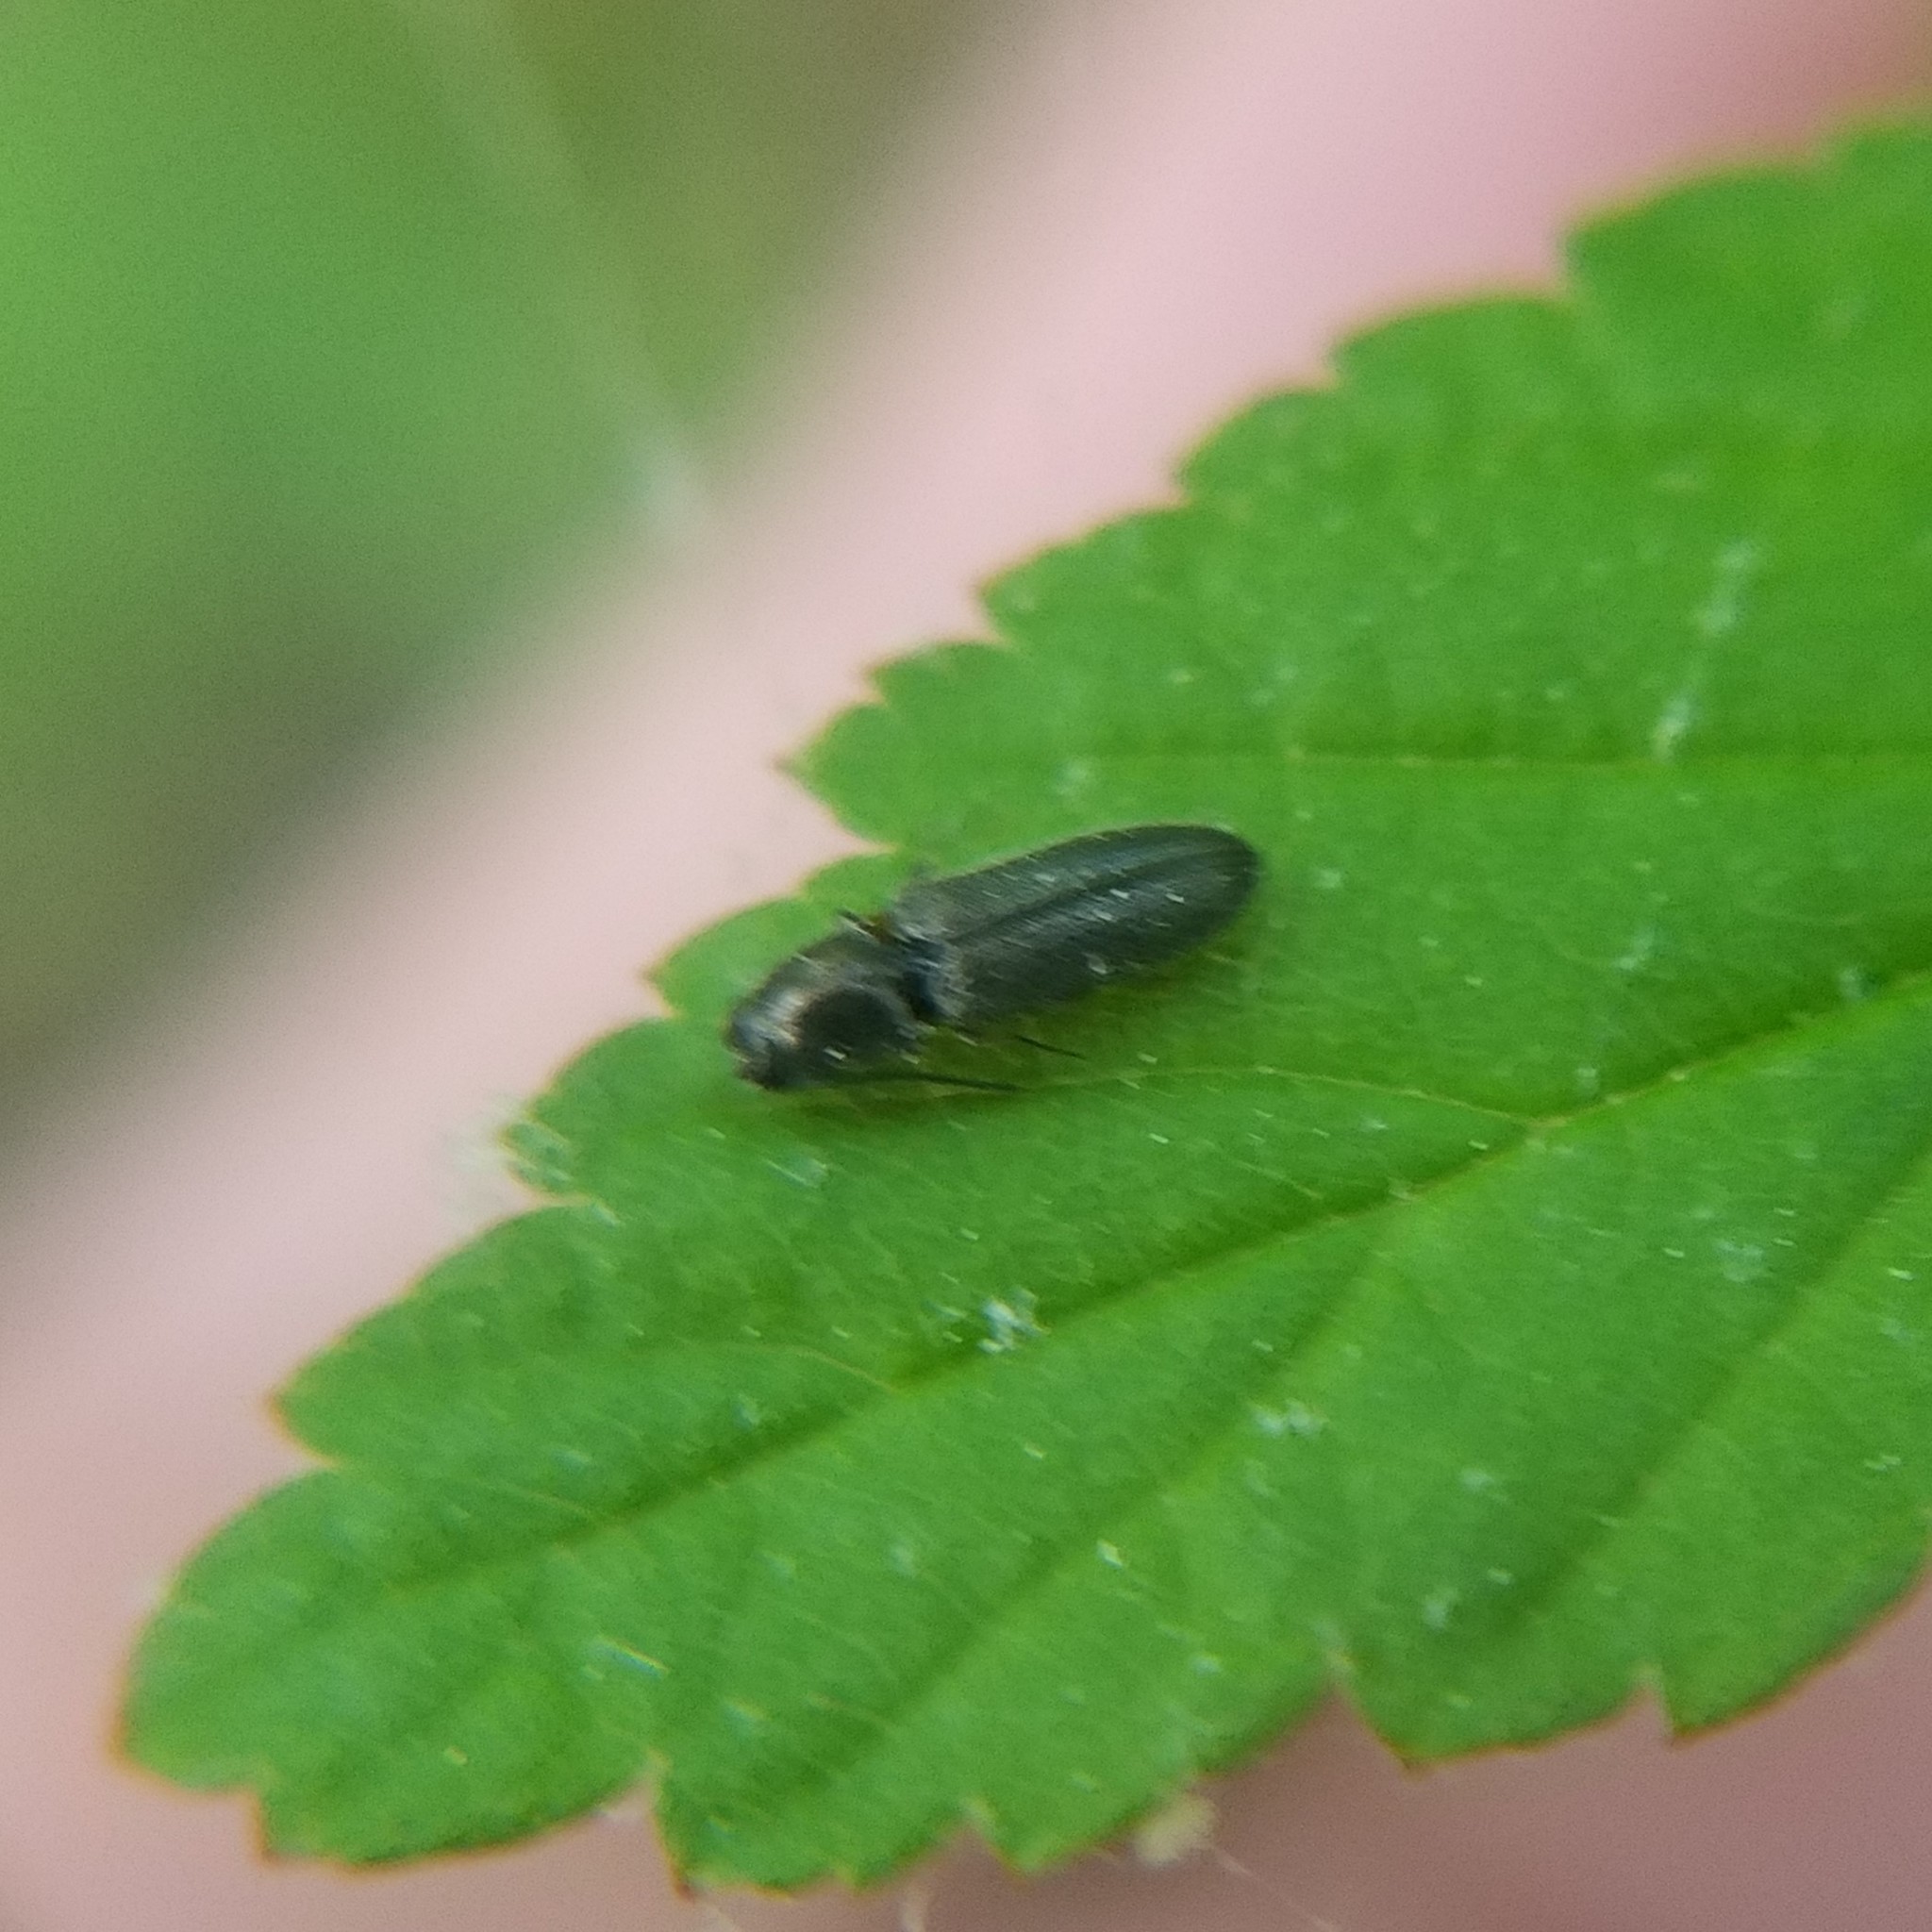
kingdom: Animalia
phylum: Arthropoda
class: Insecta
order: Coleoptera
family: Elateridae
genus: Limonius
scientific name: Limonius basilaris
